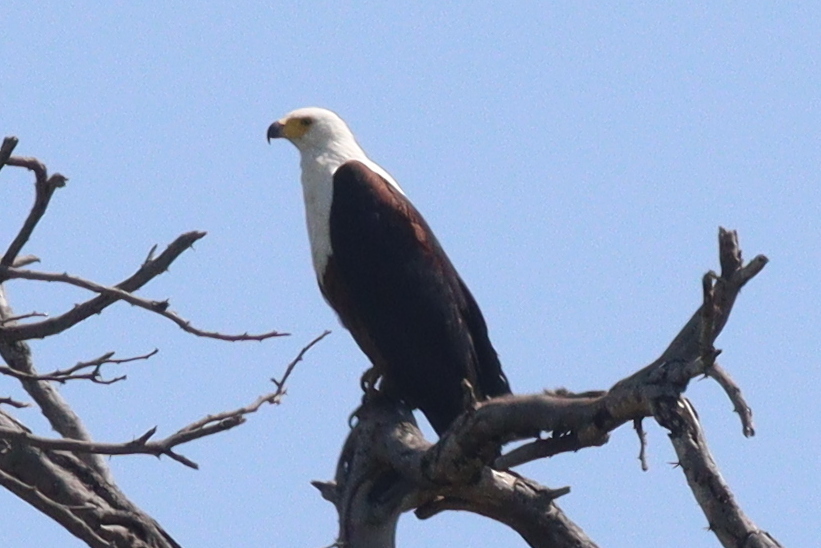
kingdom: Animalia
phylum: Chordata
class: Aves
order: Accipitriformes
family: Accipitridae
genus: Haliaeetus
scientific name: Haliaeetus vocifer
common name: African fish eagle
